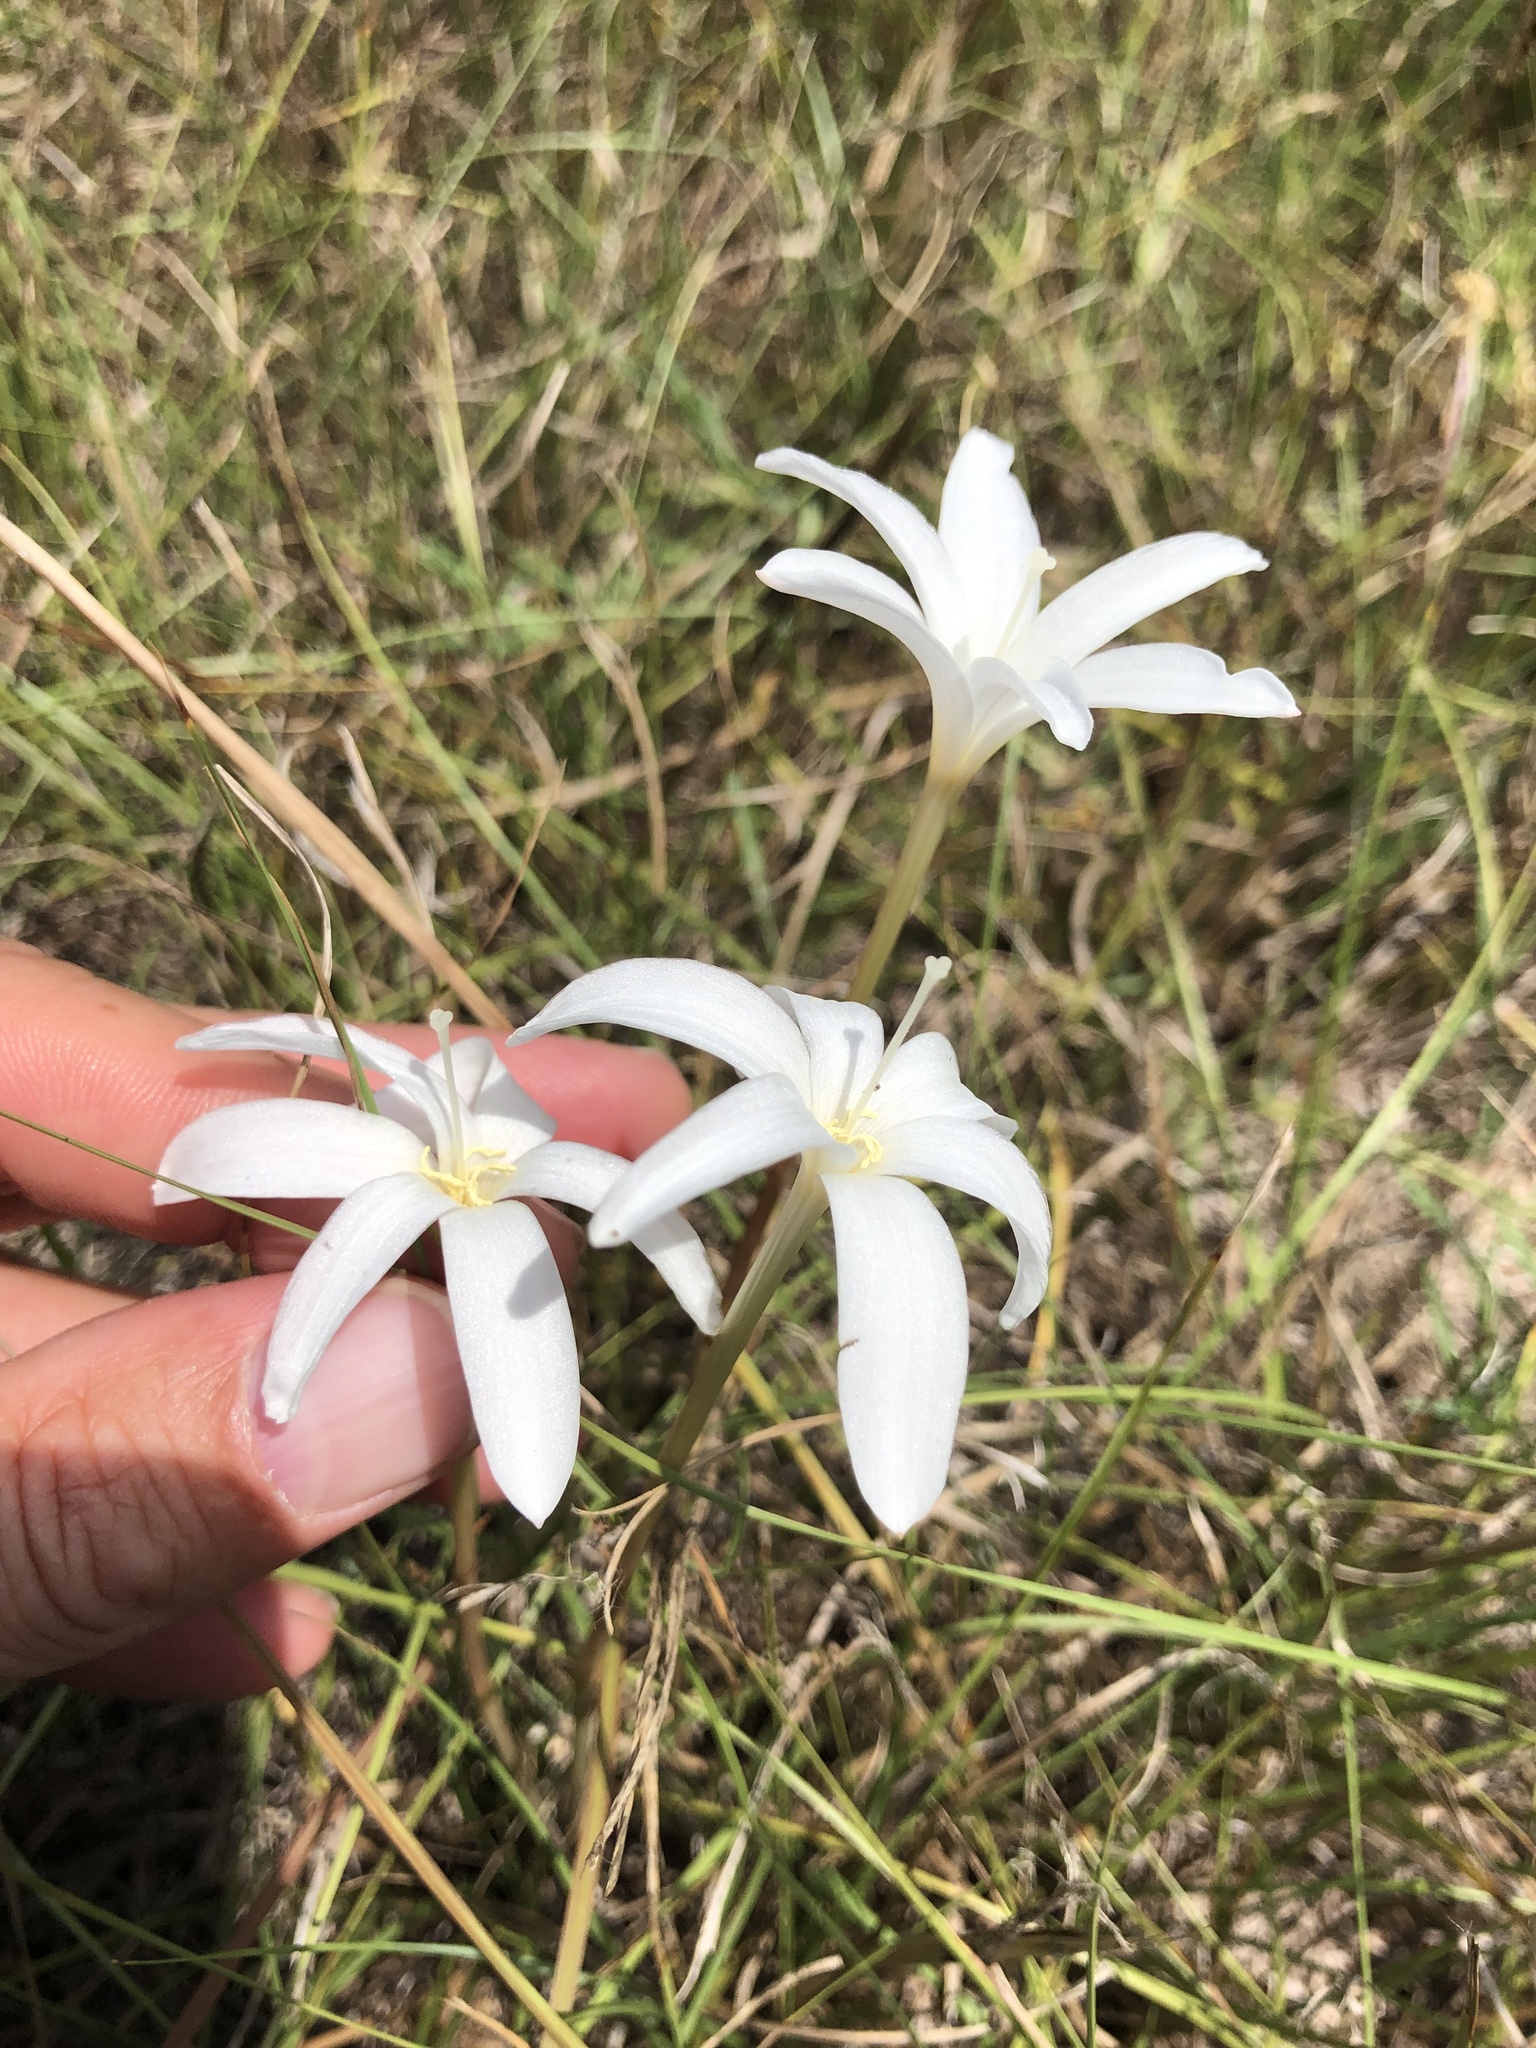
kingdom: Plantae
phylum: Tracheophyta
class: Liliopsida
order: Asparagales
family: Amaryllidaceae
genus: Zephyranthes
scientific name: Zephyranthes traubii
